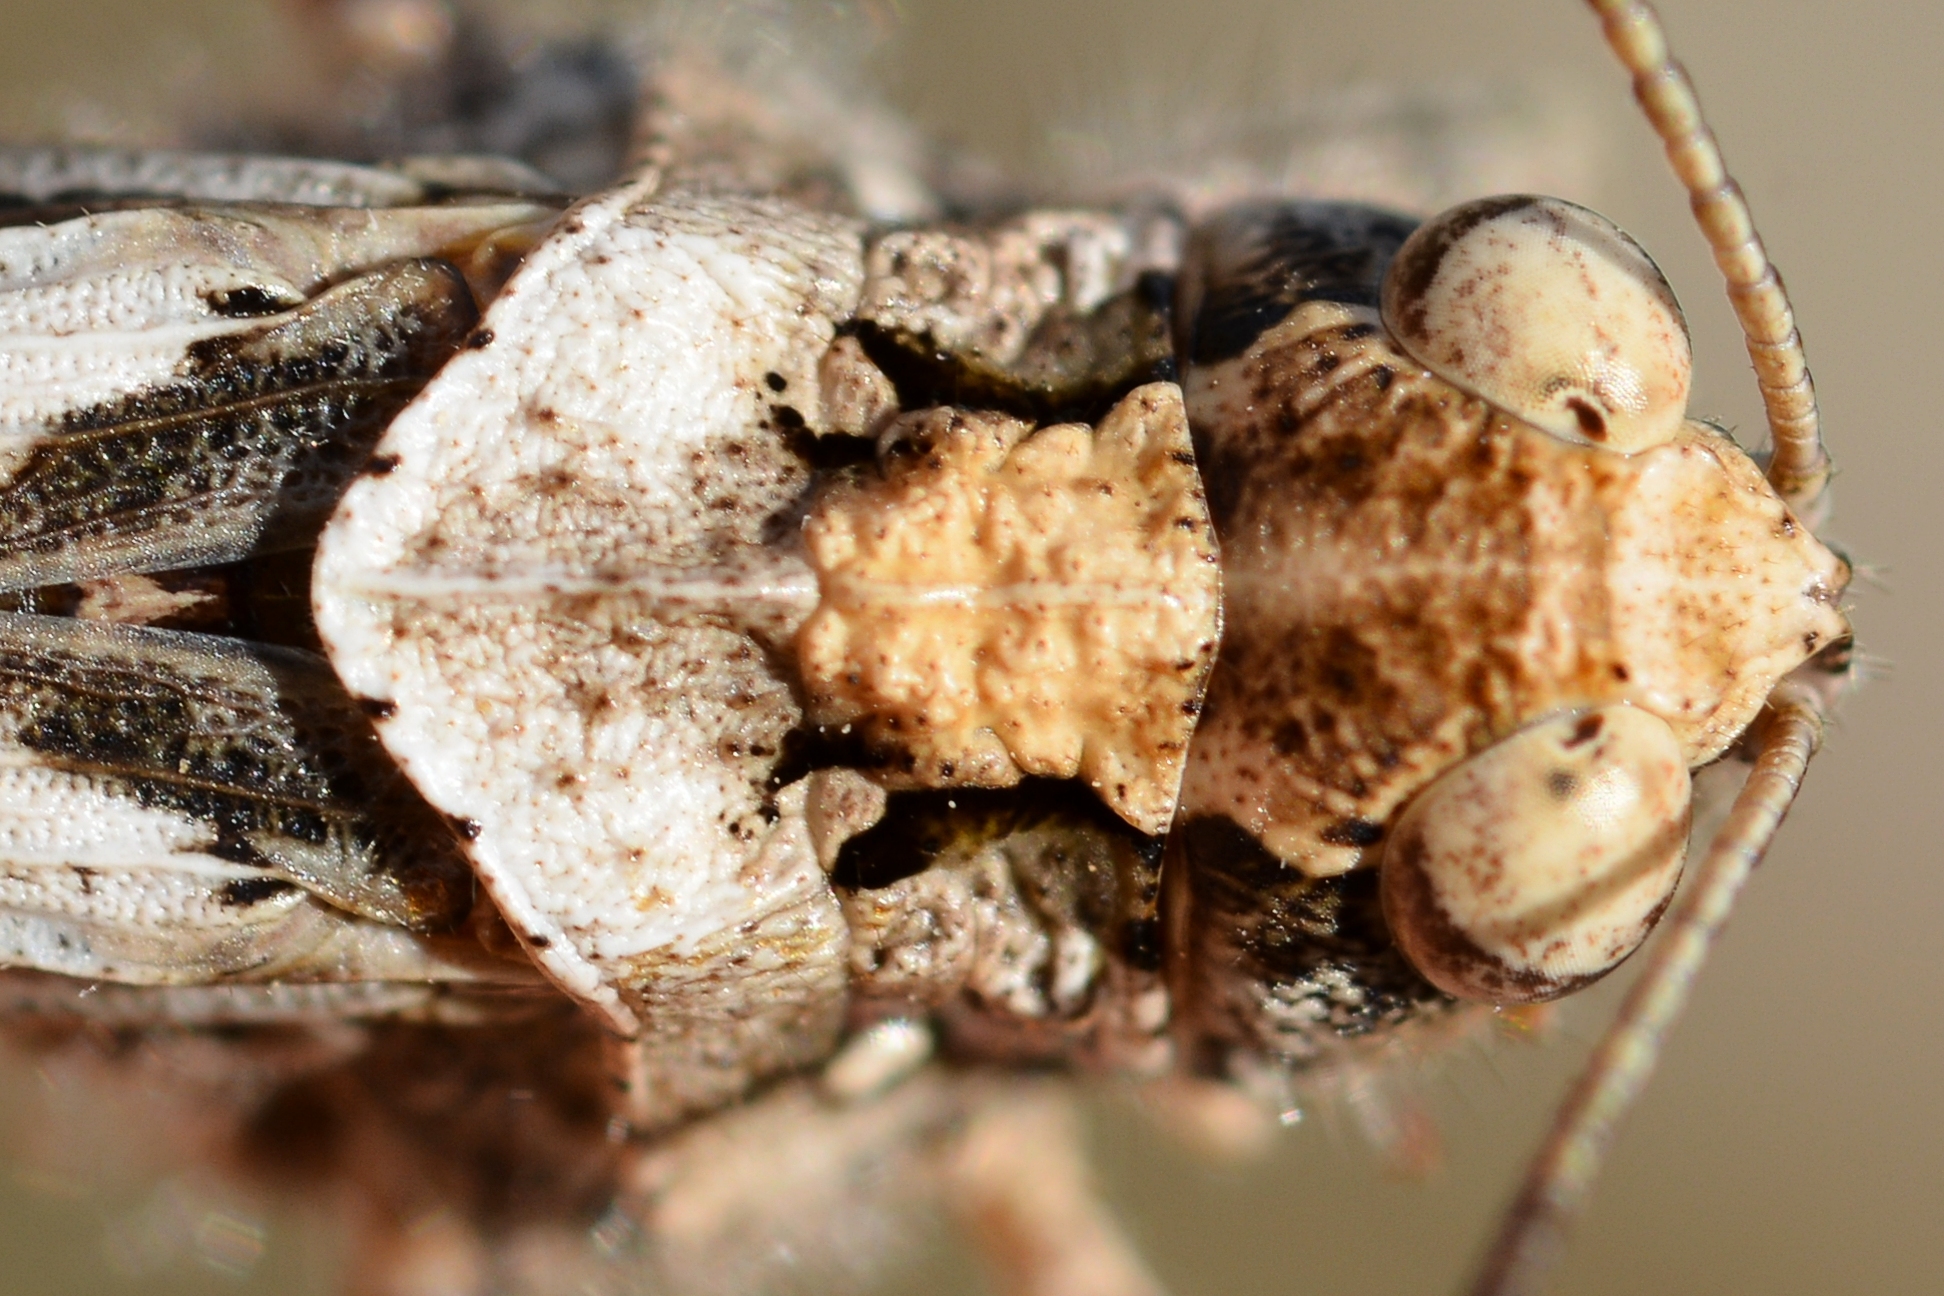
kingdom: Animalia
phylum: Arthropoda
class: Insecta
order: Orthoptera
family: Acrididae
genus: Acrotylus
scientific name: Acrotylus fischeri
